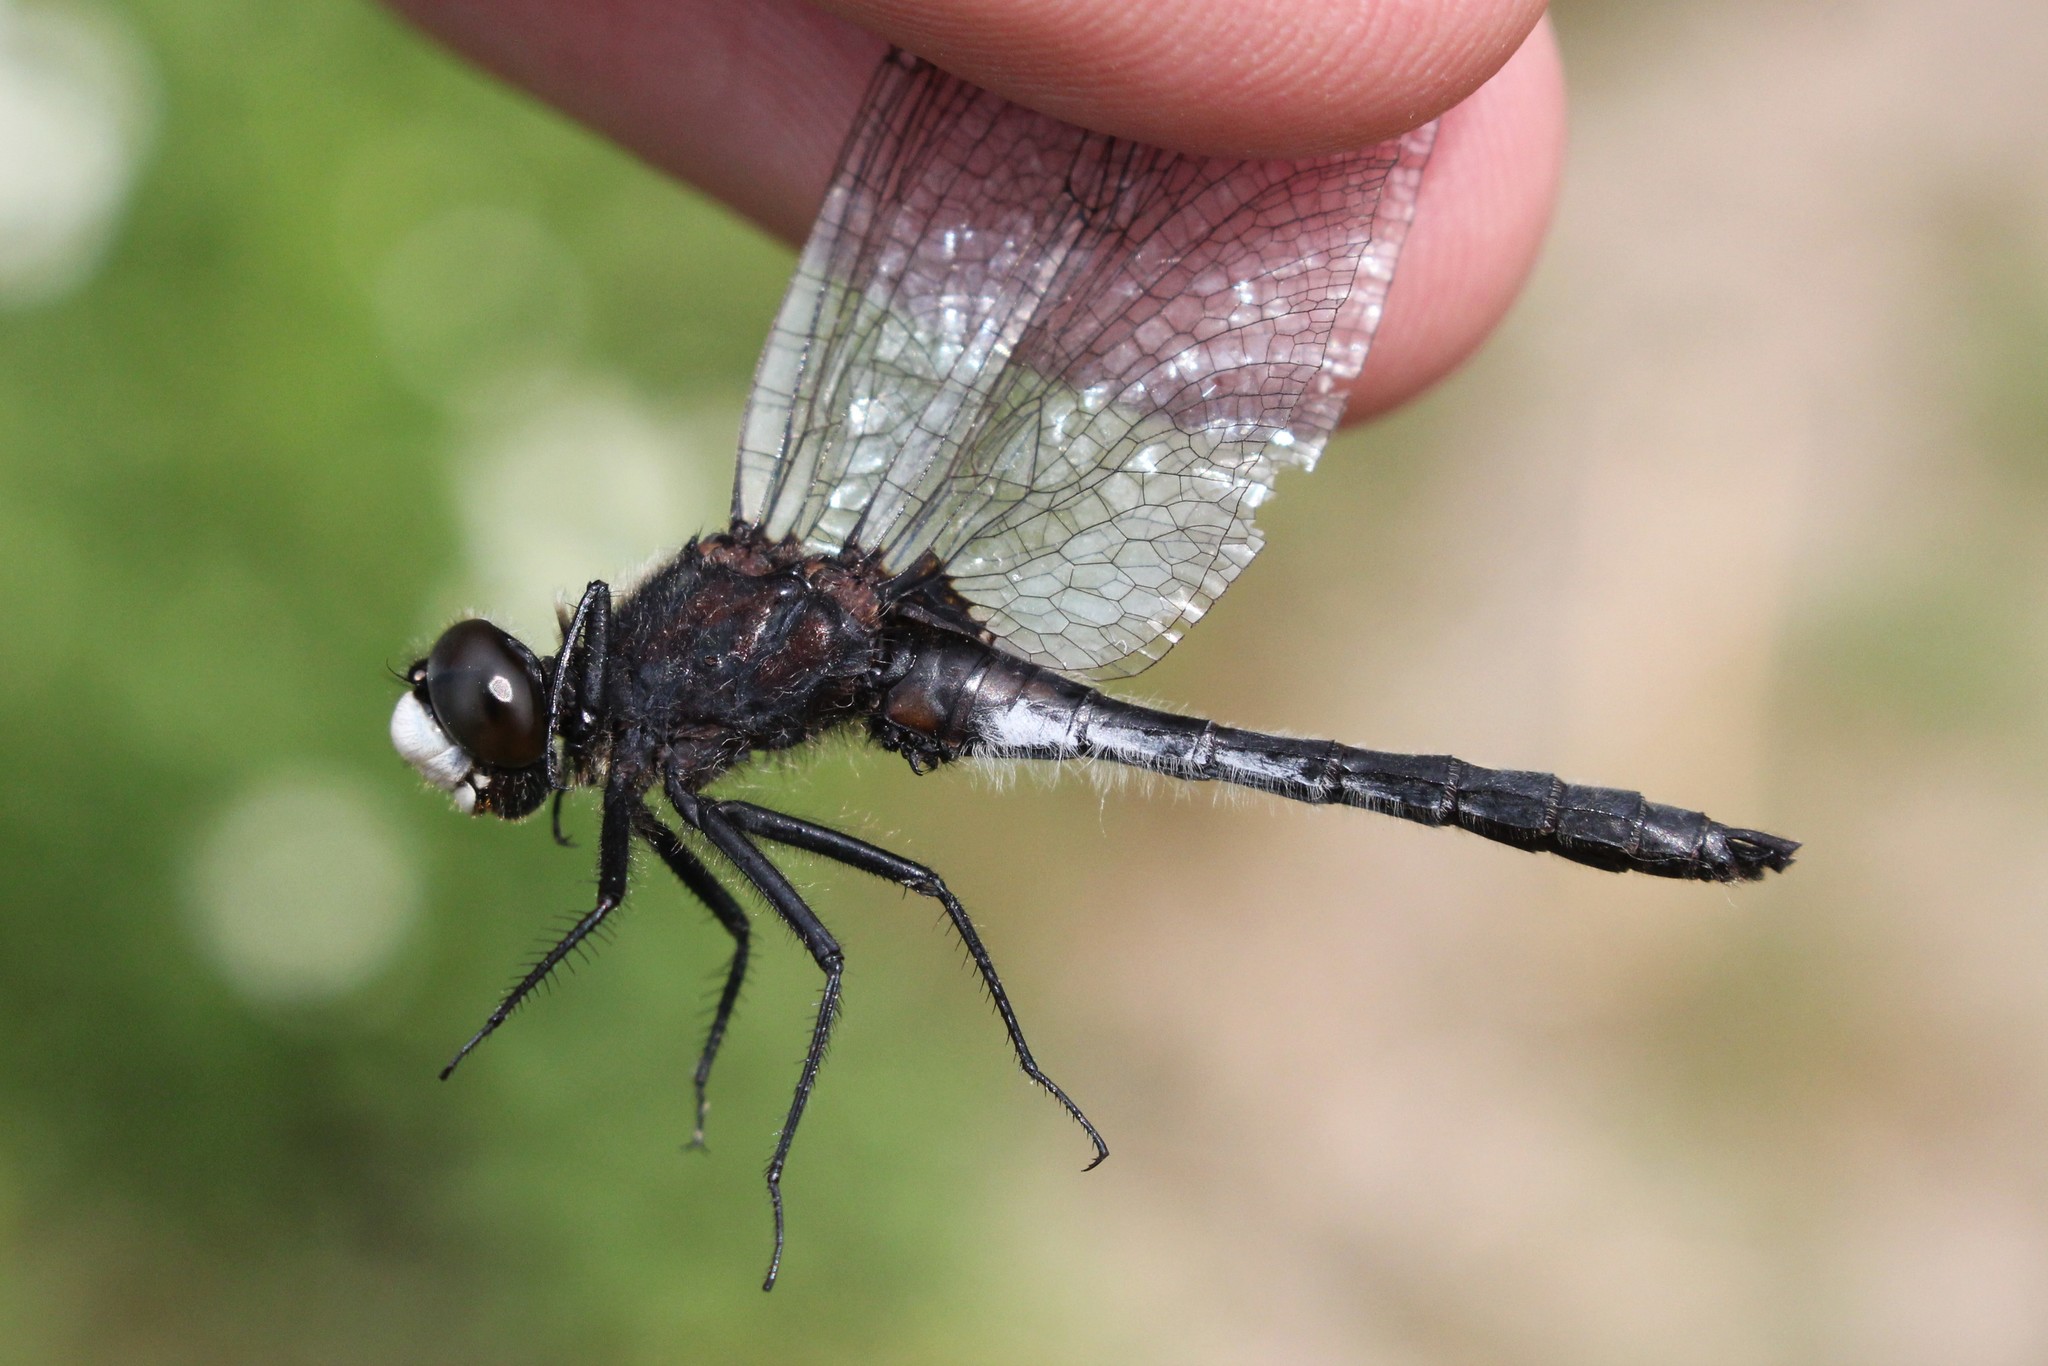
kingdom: Animalia
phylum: Arthropoda
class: Insecta
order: Odonata
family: Libellulidae
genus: Leucorrhinia
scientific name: Leucorrhinia intacta
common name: Dot-tailed whiteface
